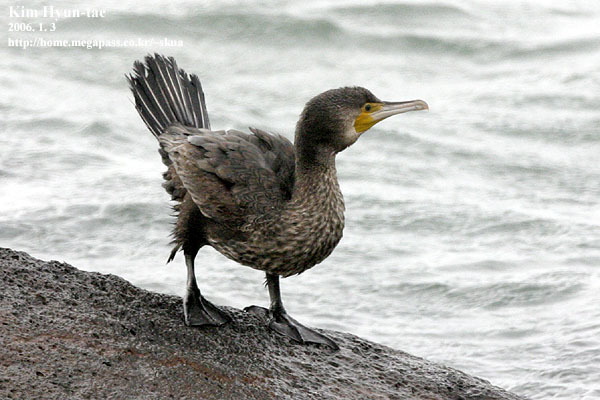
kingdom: Animalia
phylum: Chordata
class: Aves
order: Suliformes
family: Phalacrocoracidae
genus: Phalacrocorax
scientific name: Phalacrocorax carbo
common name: Great cormorant
